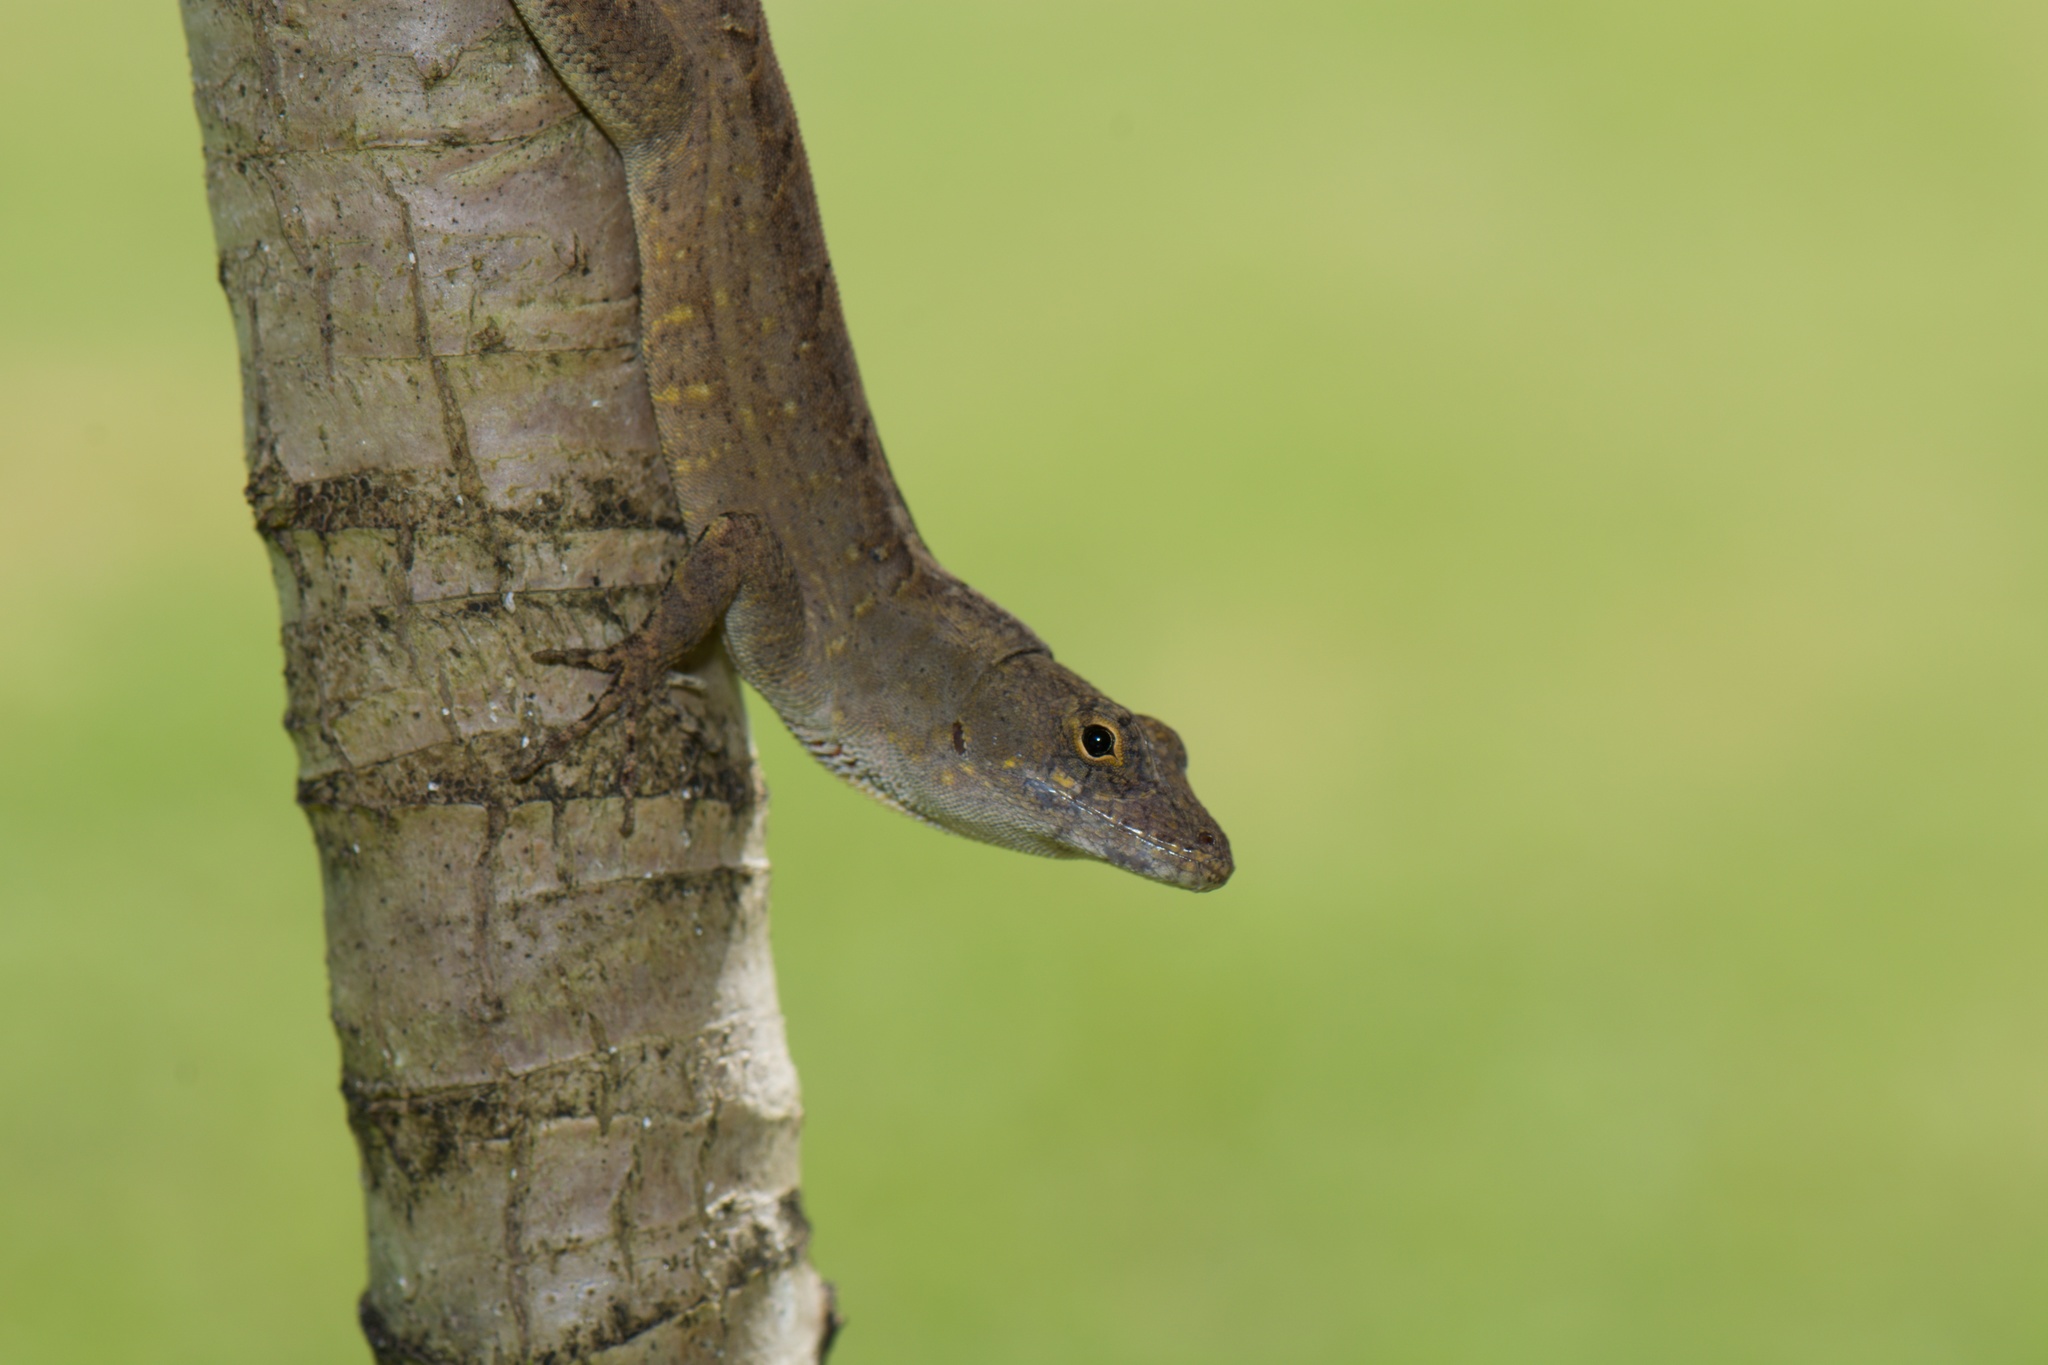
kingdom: Animalia
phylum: Chordata
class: Squamata
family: Dactyloidae
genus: Anolis
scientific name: Anolis sagrei
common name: Brown anole
